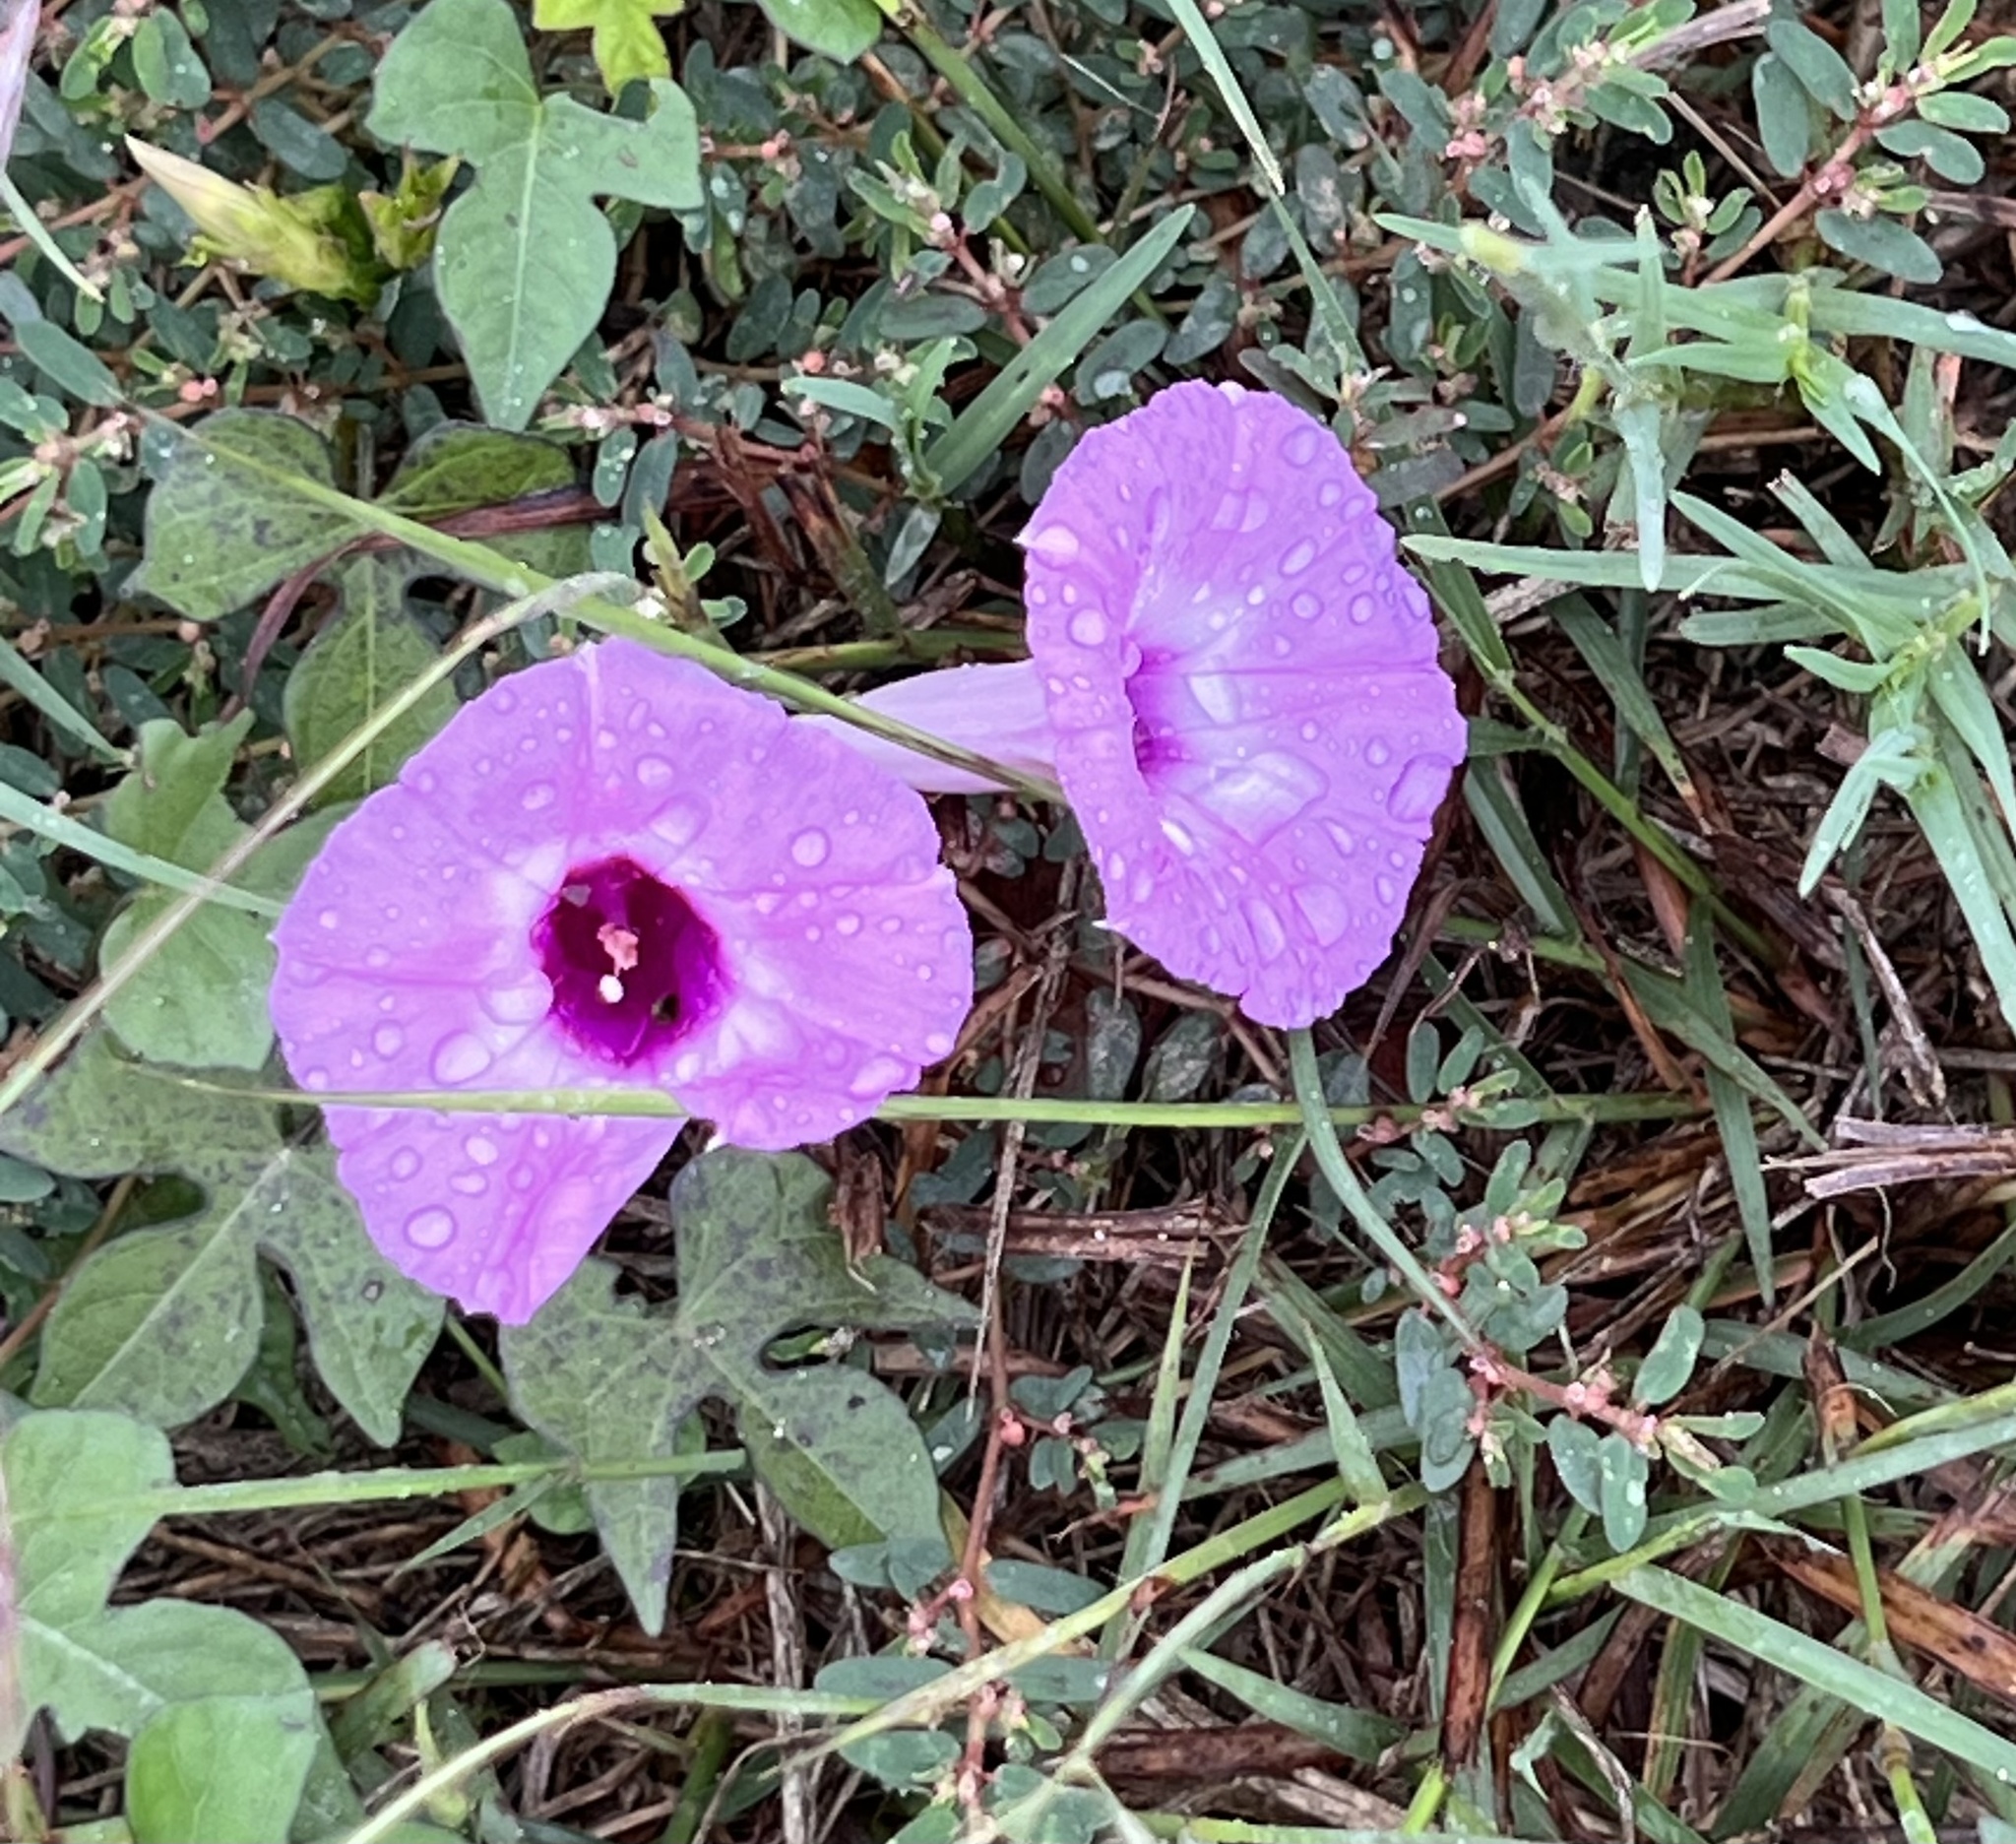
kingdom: Plantae
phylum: Tracheophyta
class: Magnoliopsida
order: Solanales
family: Convolvulaceae
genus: Ipomoea
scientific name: Ipomoea cordatotriloba
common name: Cotton morning glory
